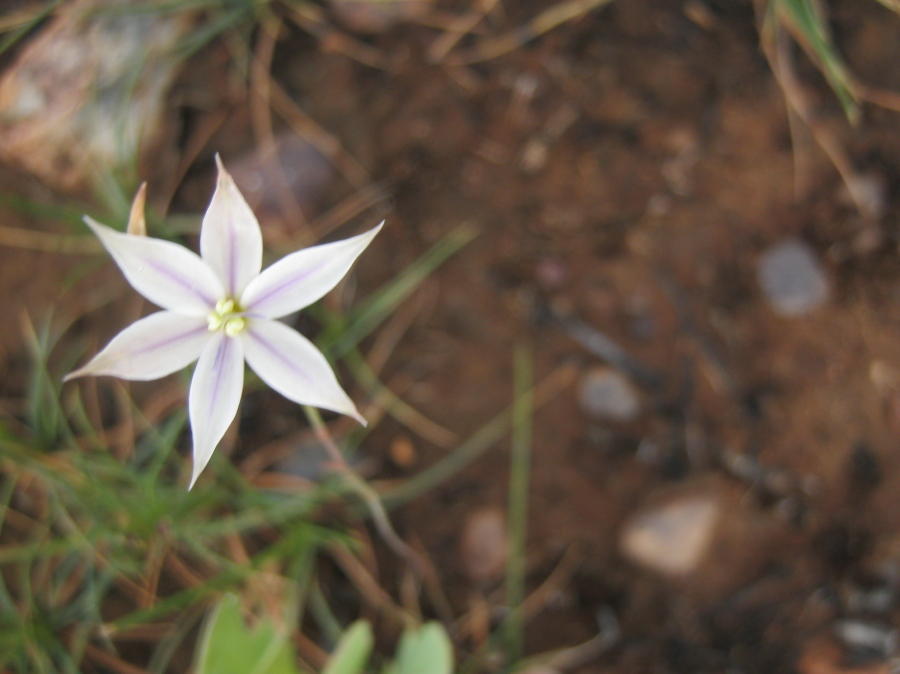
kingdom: Plantae
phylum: Tracheophyta
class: Liliopsida
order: Asparagales
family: Iridaceae
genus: Gladiolus
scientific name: Gladiolus stellatus
